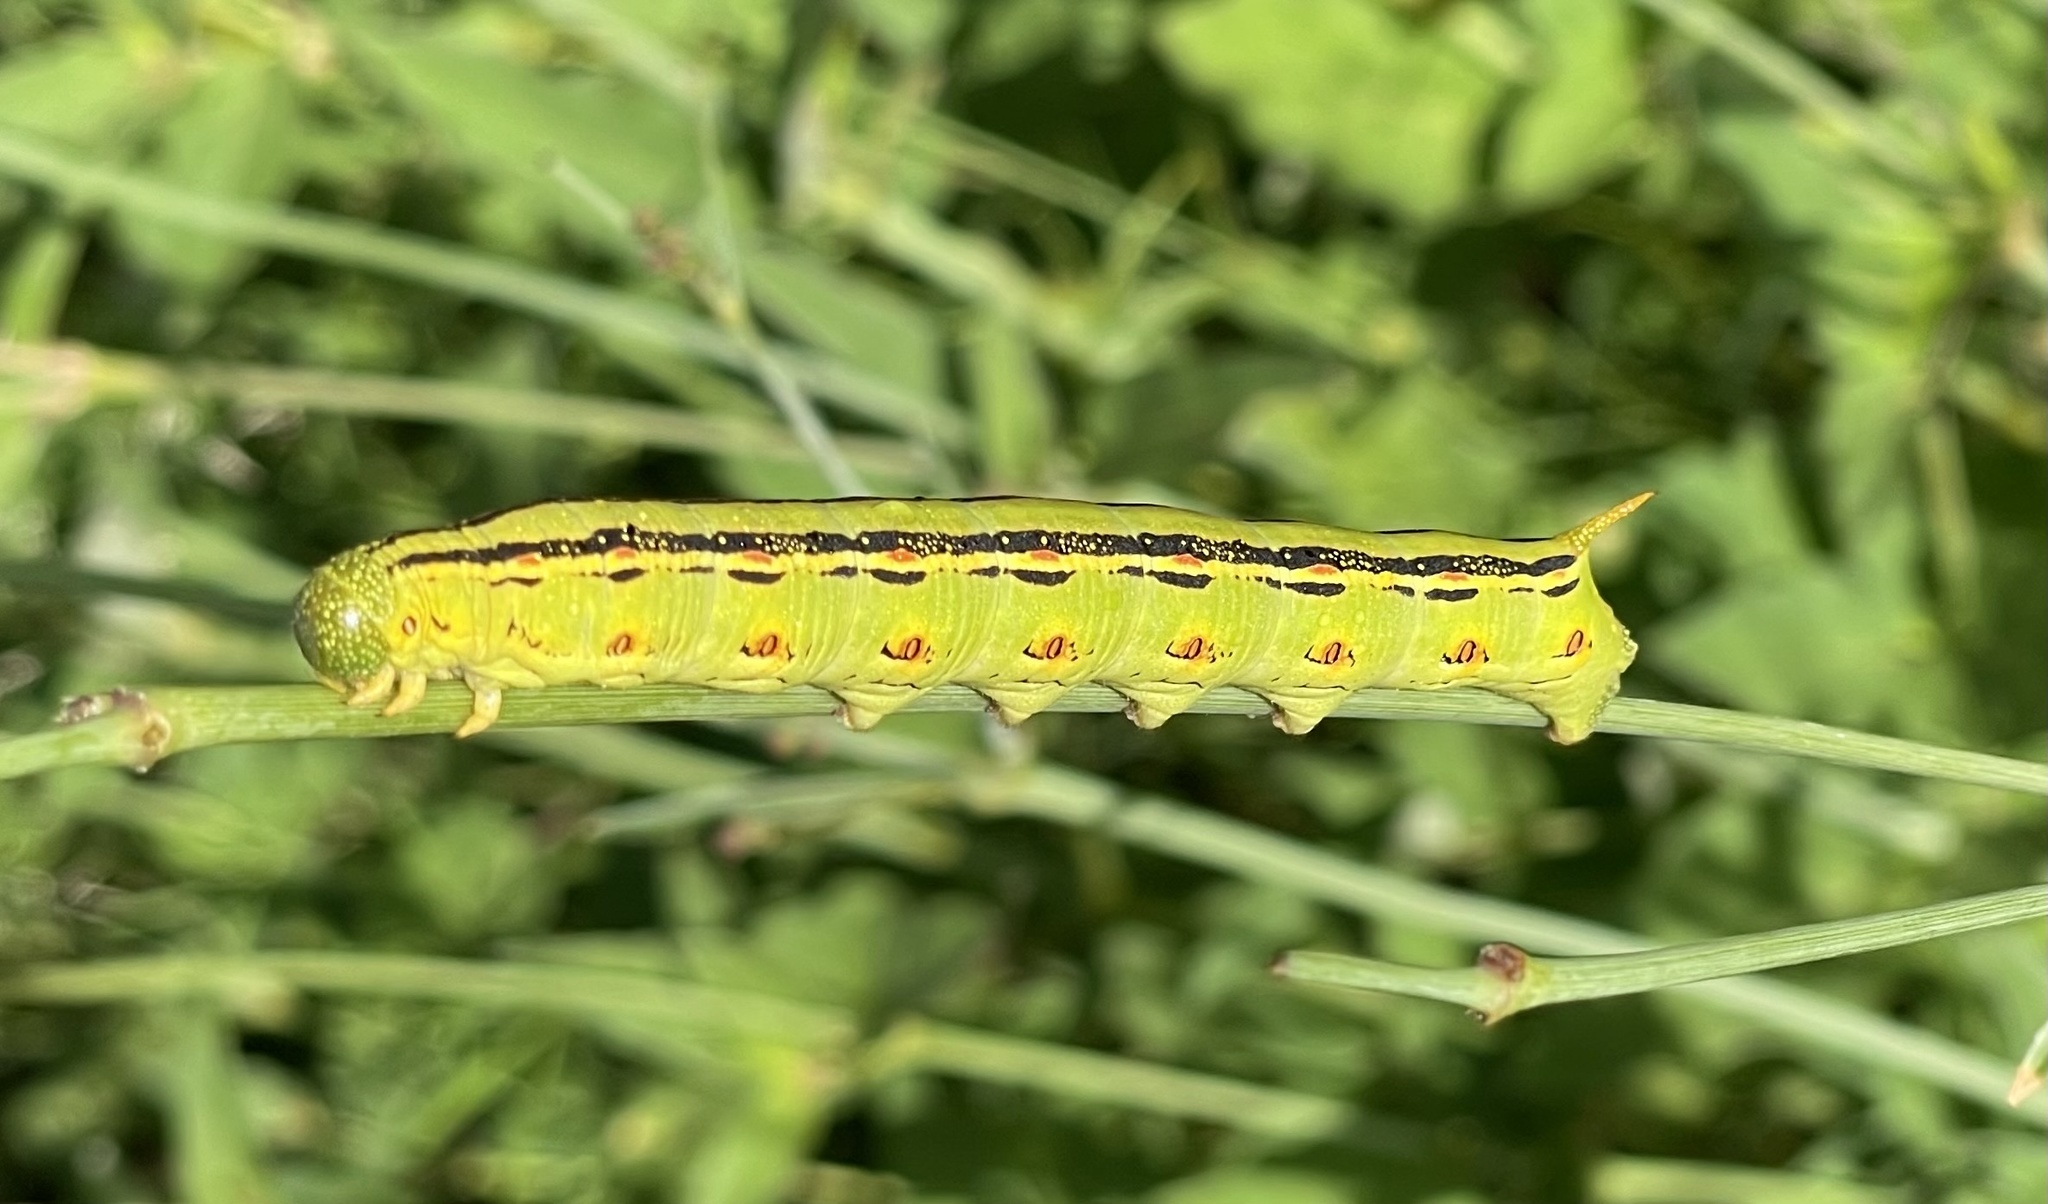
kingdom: Animalia
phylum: Arthropoda
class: Insecta
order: Lepidoptera
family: Sphingidae
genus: Hyles
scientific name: Hyles lineata
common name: White-lined sphinx
